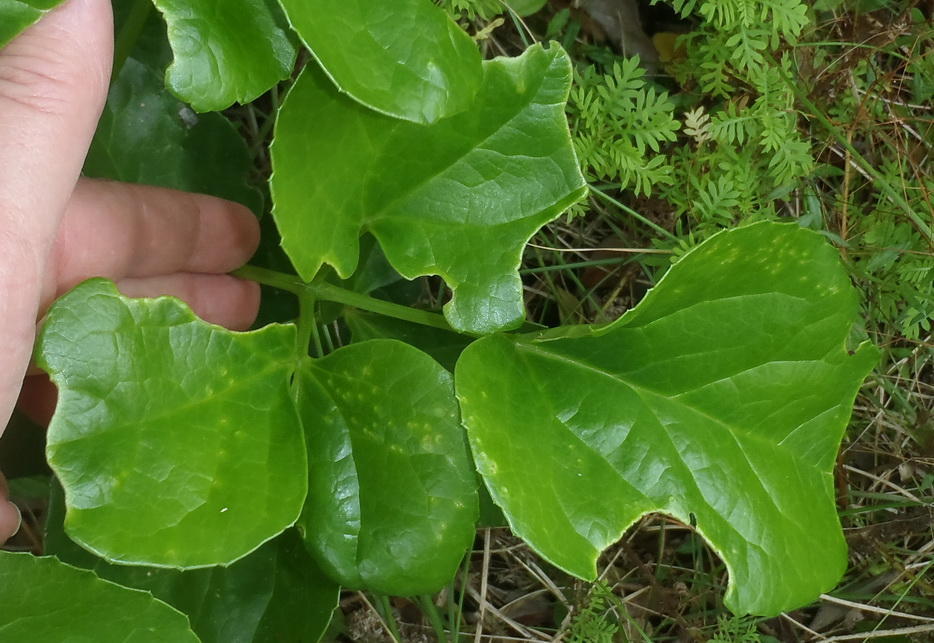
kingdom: Plantae
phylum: Tracheophyta
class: Magnoliopsida
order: Ranunculales
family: Ranunculaceae
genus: Knowltonia
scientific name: Knowltonia vesicatoria
